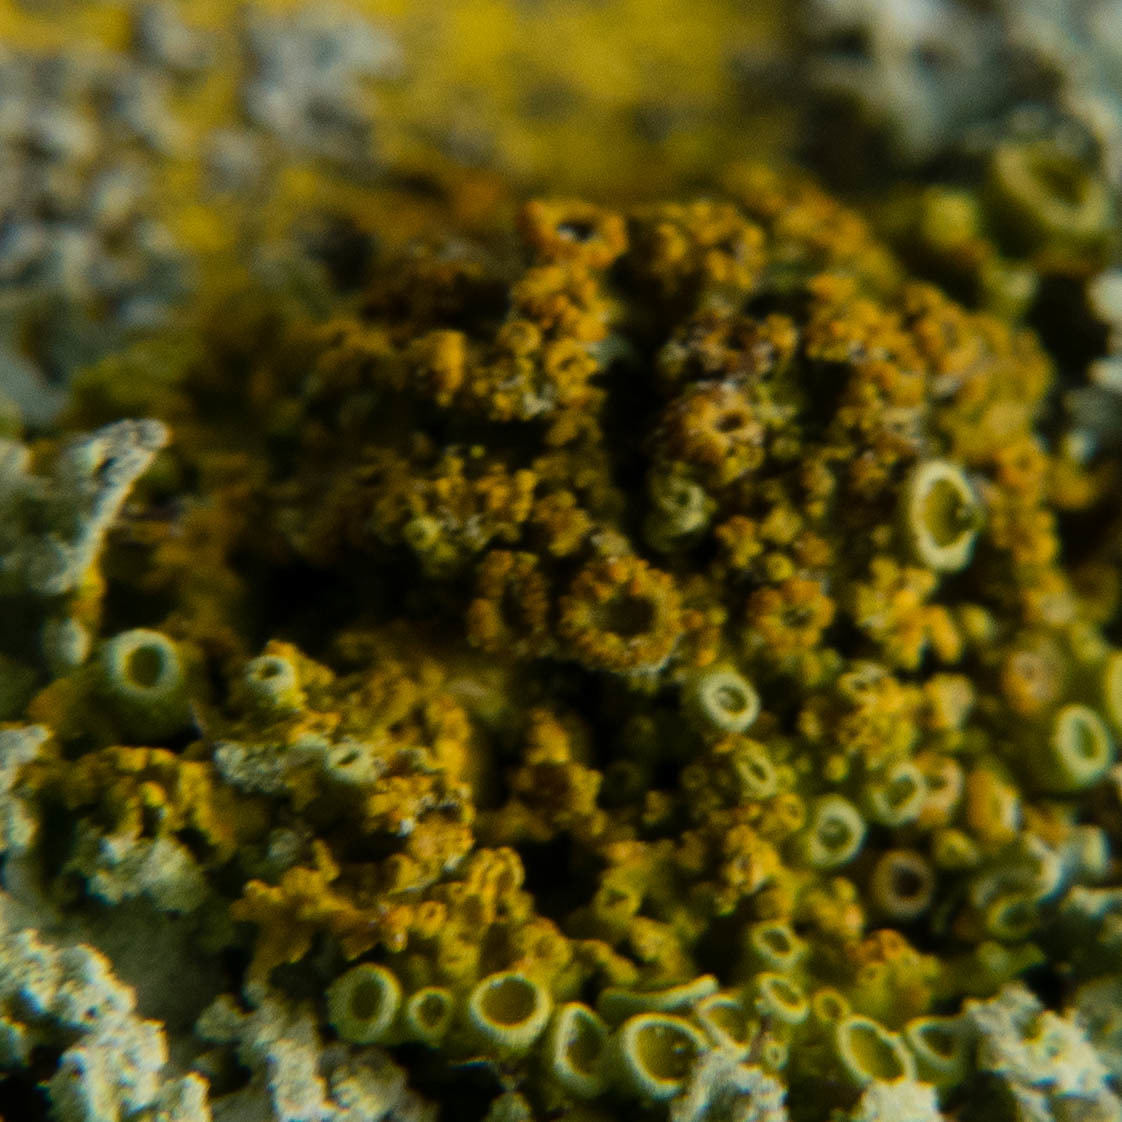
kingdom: Fungi
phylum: Ascomycota
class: Lecanoromycetes
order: Teloschistales
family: Teloschistaceae
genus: Polycauliona
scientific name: Polycauliona polycarpa
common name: Pin-cushion sunburst lichen
